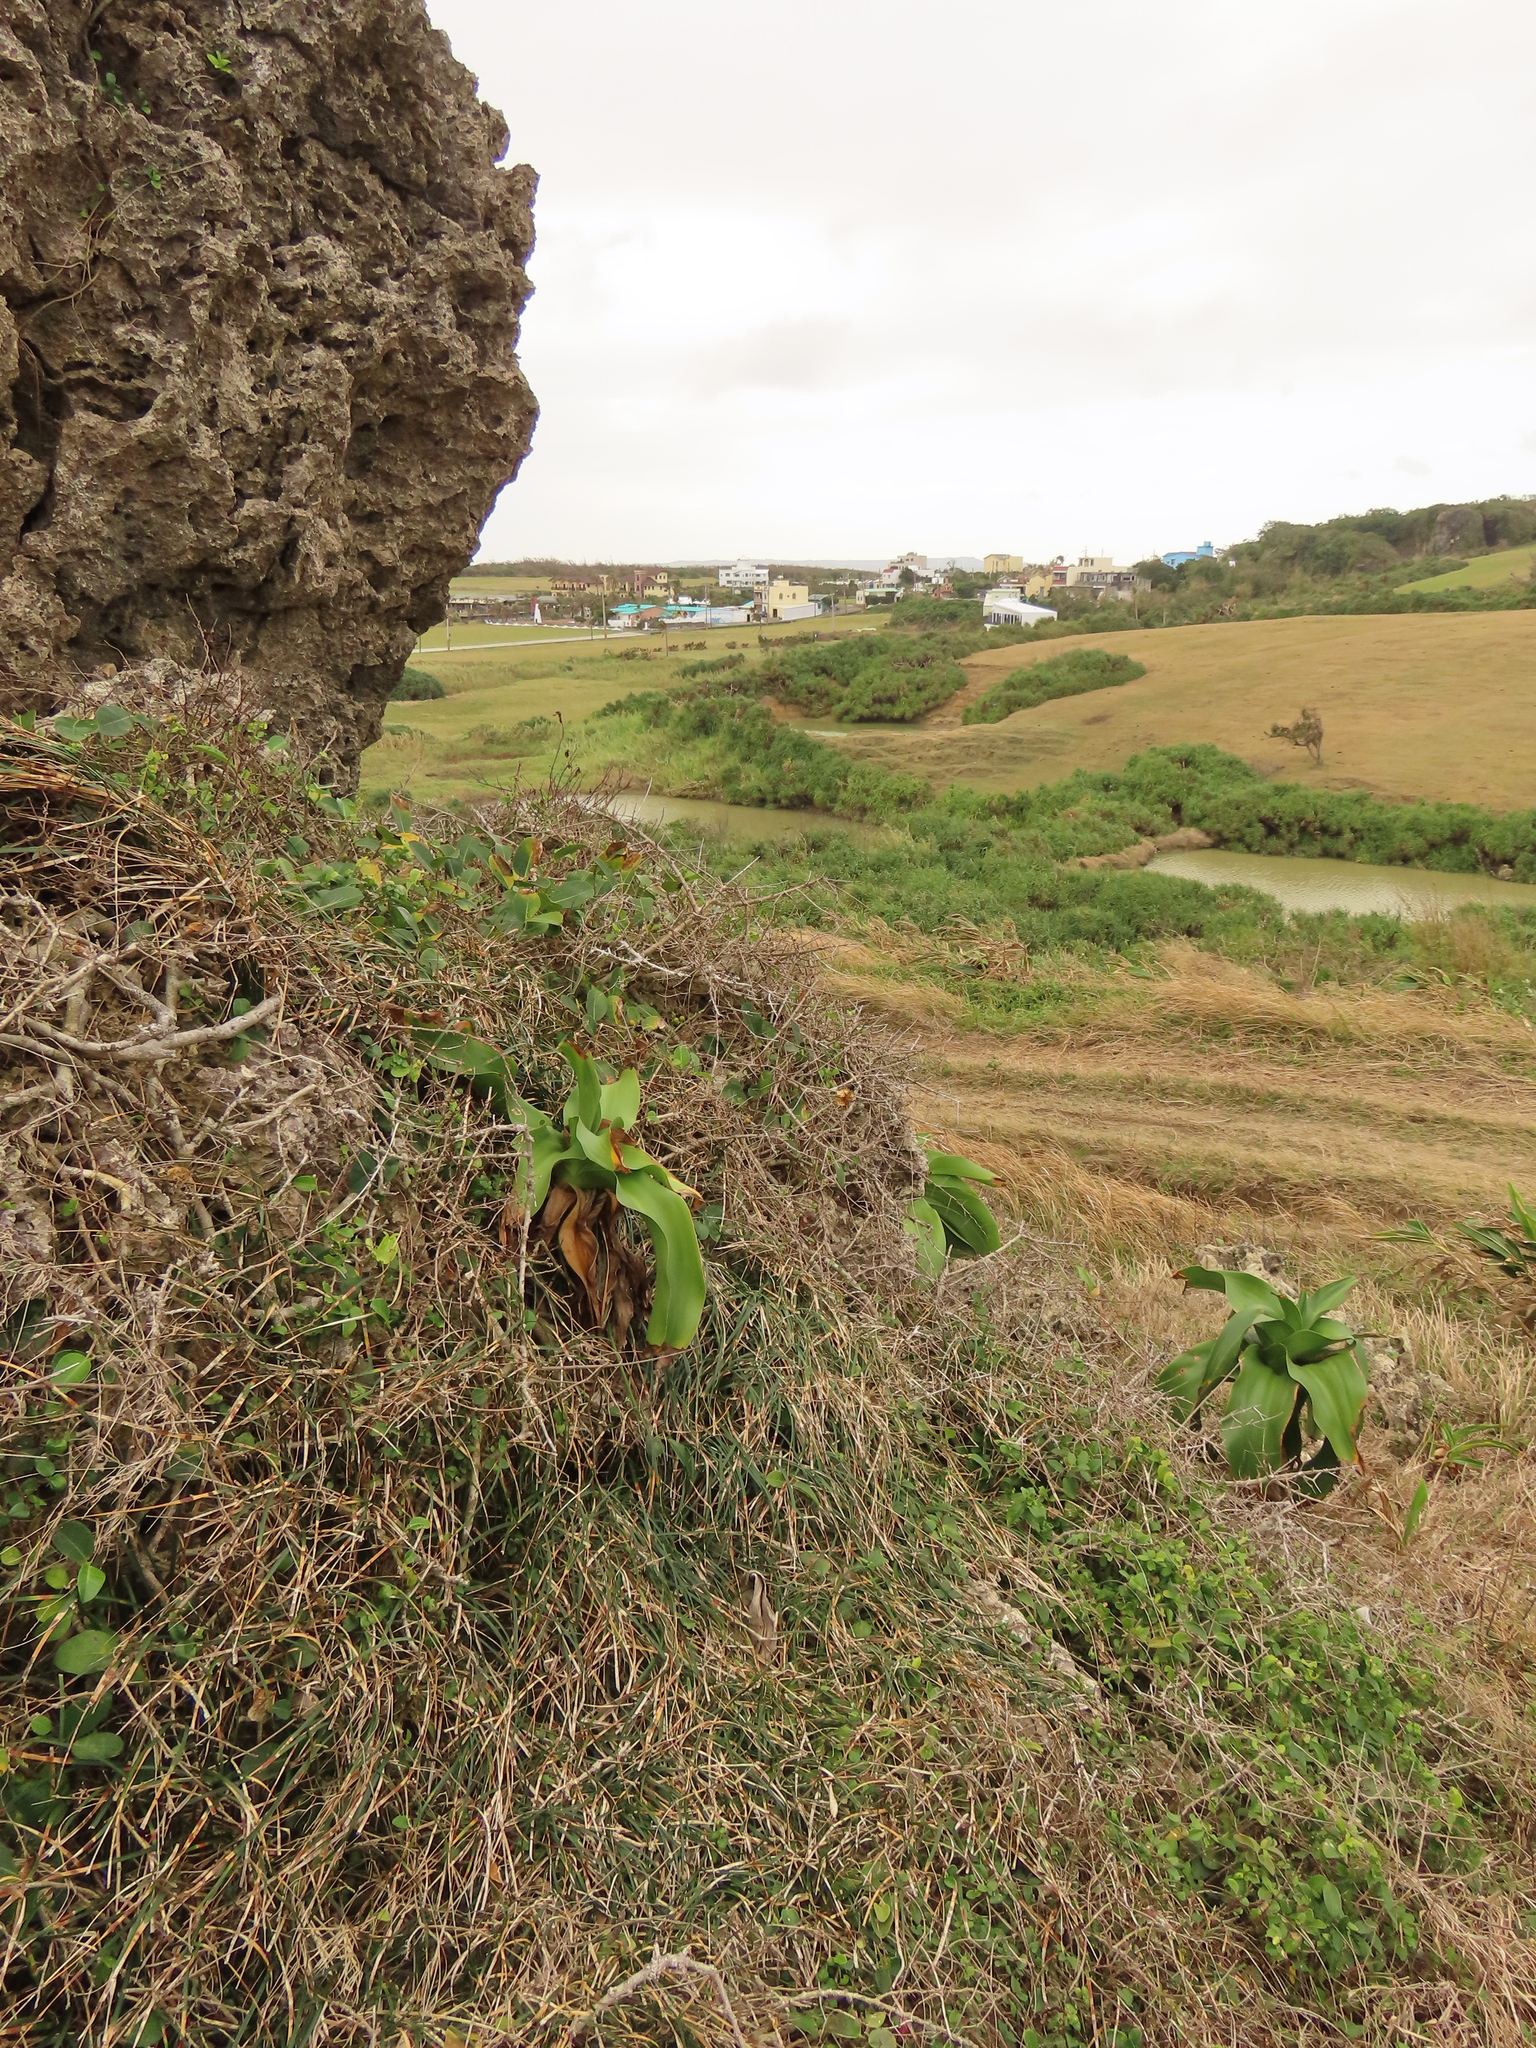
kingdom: Plantae
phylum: Tracheophyta
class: Liliopsida
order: Asparagales
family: Amaryllidaceae
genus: Crinum
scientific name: Crinum asiaticum
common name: Poisonbulb
